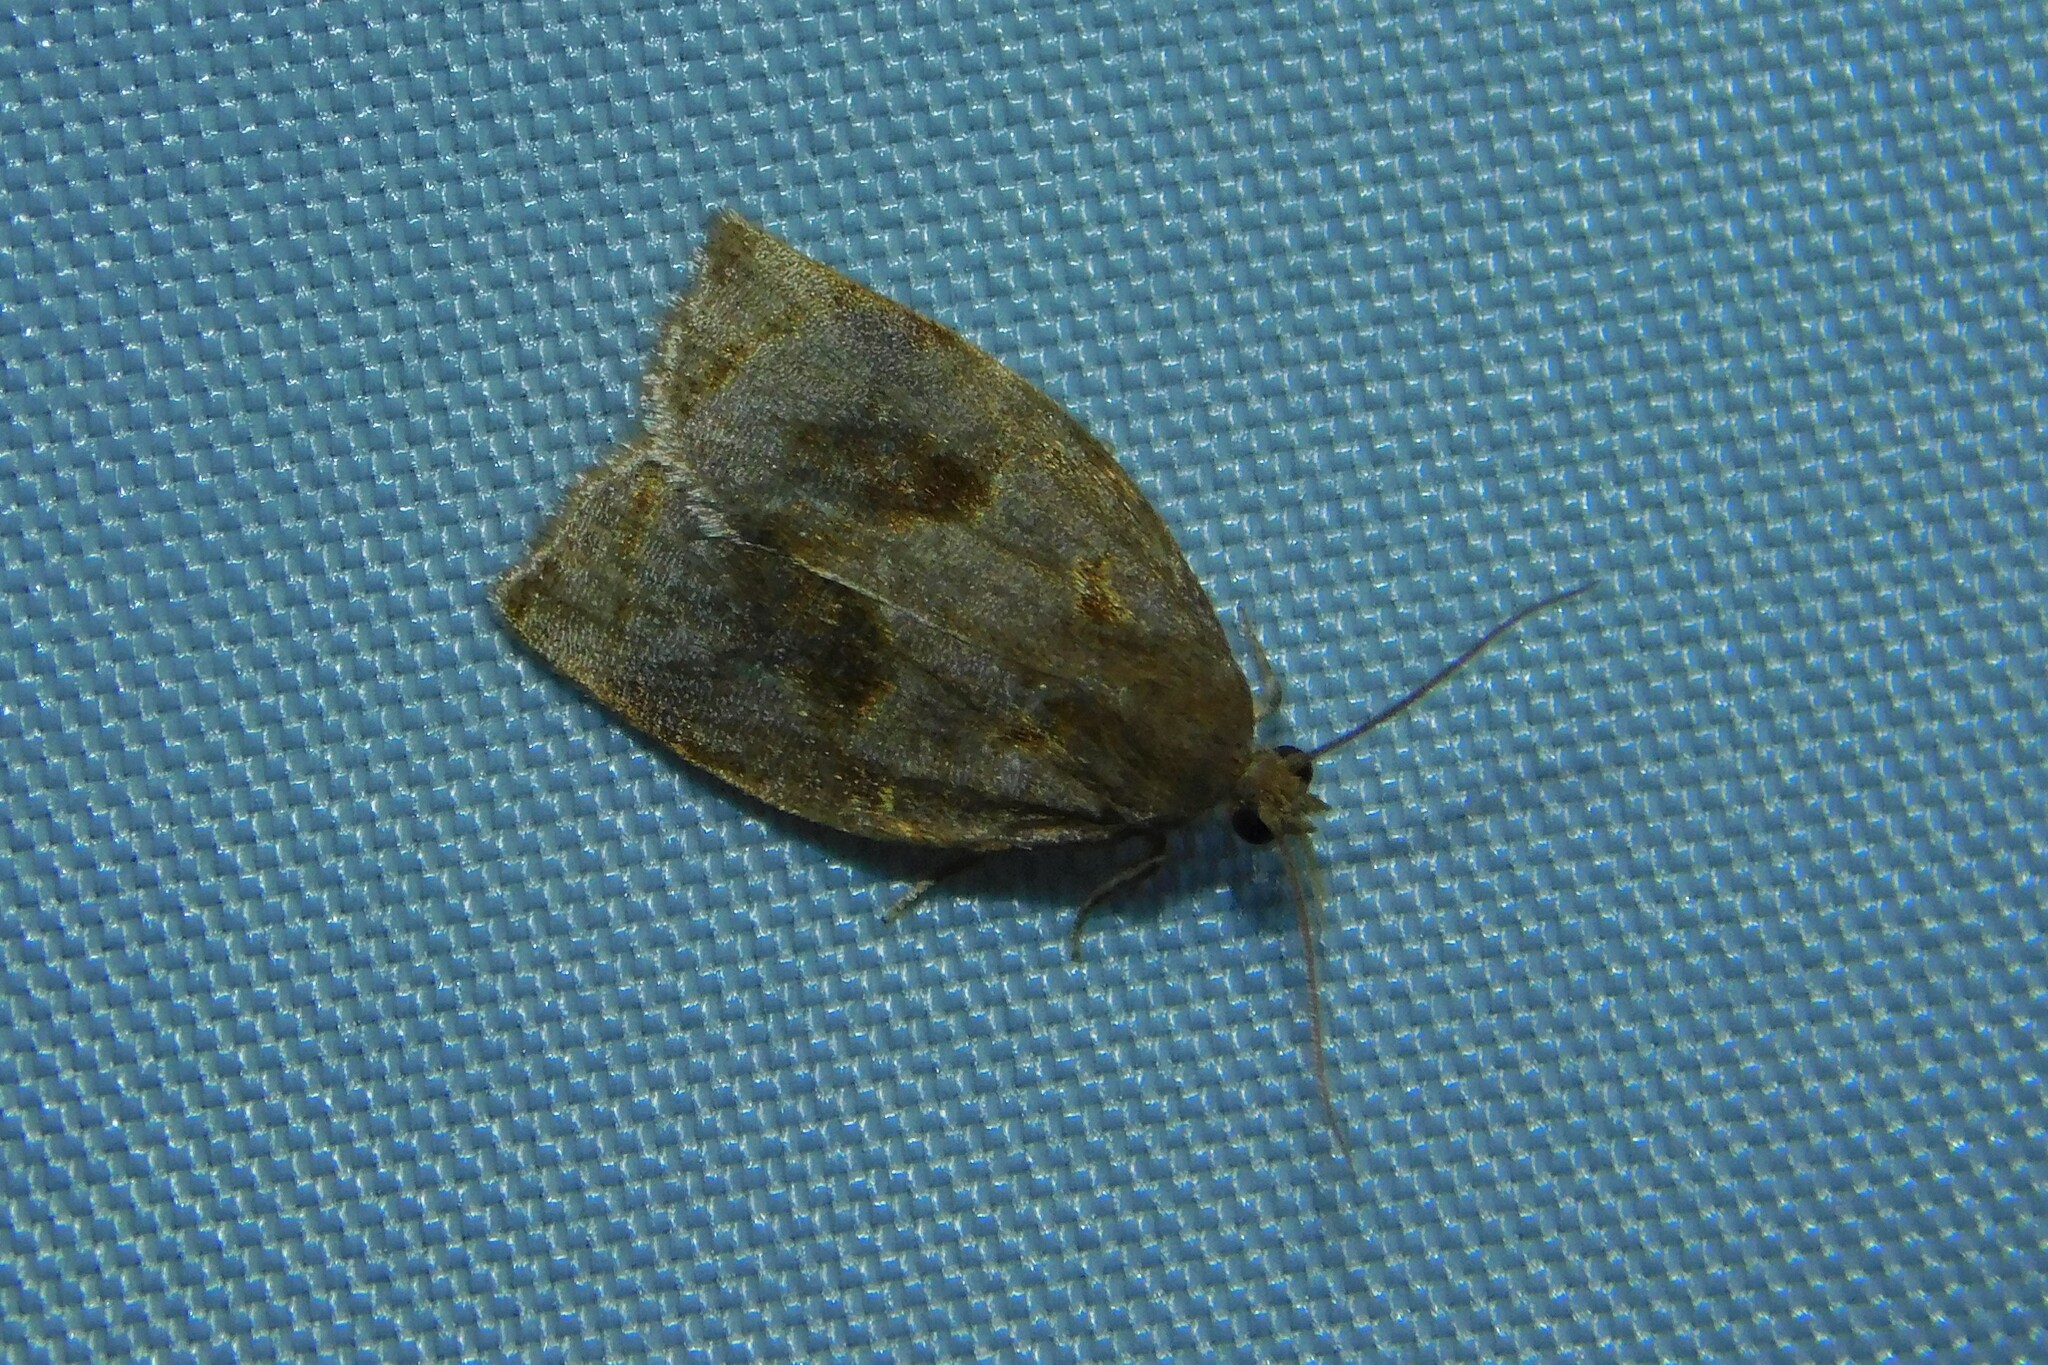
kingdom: Animalia
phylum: Arthropoda
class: Insecta
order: Lepidoptera
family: Tortricidae
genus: Archips
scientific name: Archips rosana
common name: Rose tortrix
